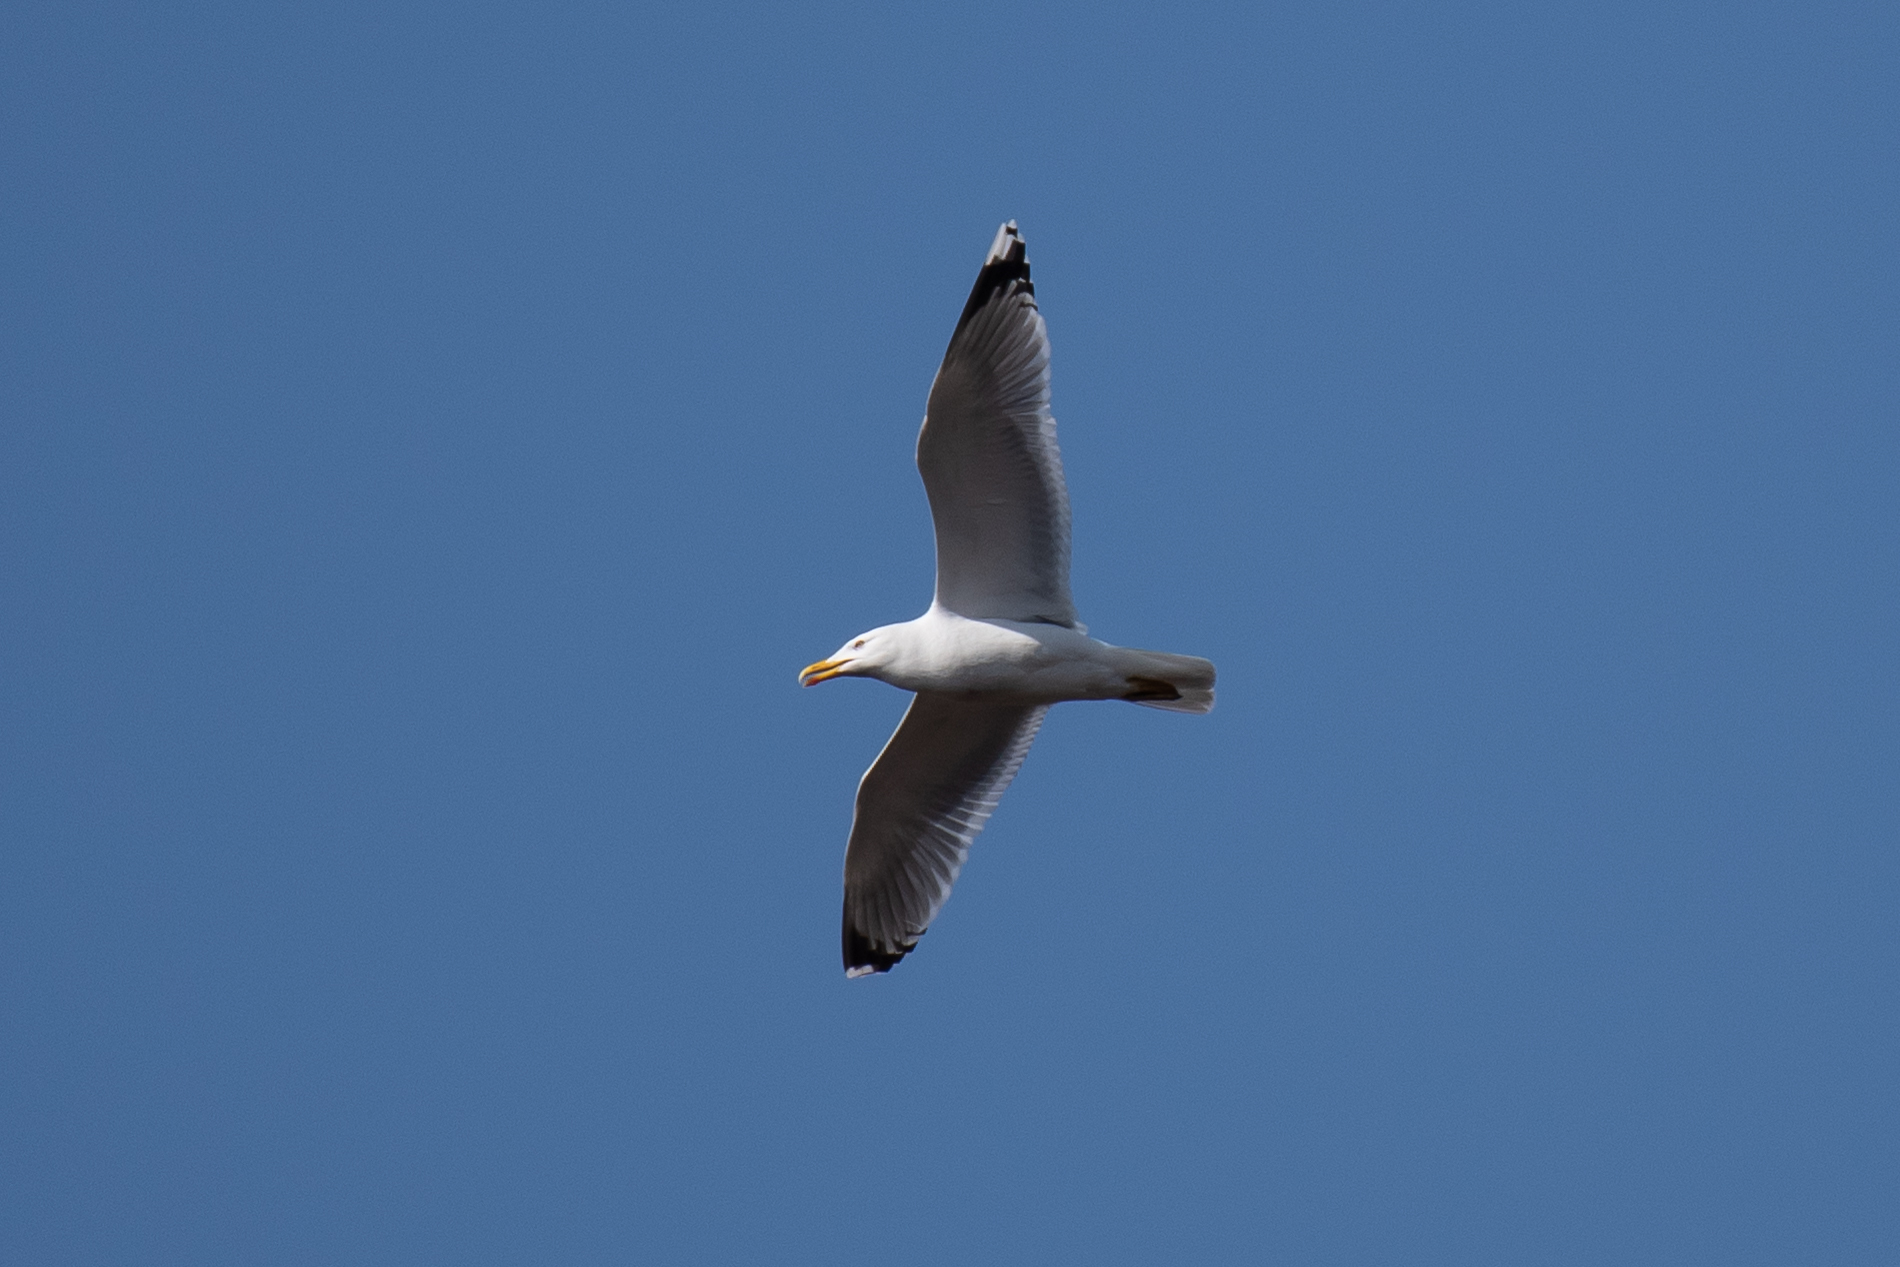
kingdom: Animalia
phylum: Chordata
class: Aves
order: Charadriiformes
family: Laridae
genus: Larus
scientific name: Larus cachinnans
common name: Caspian gull
